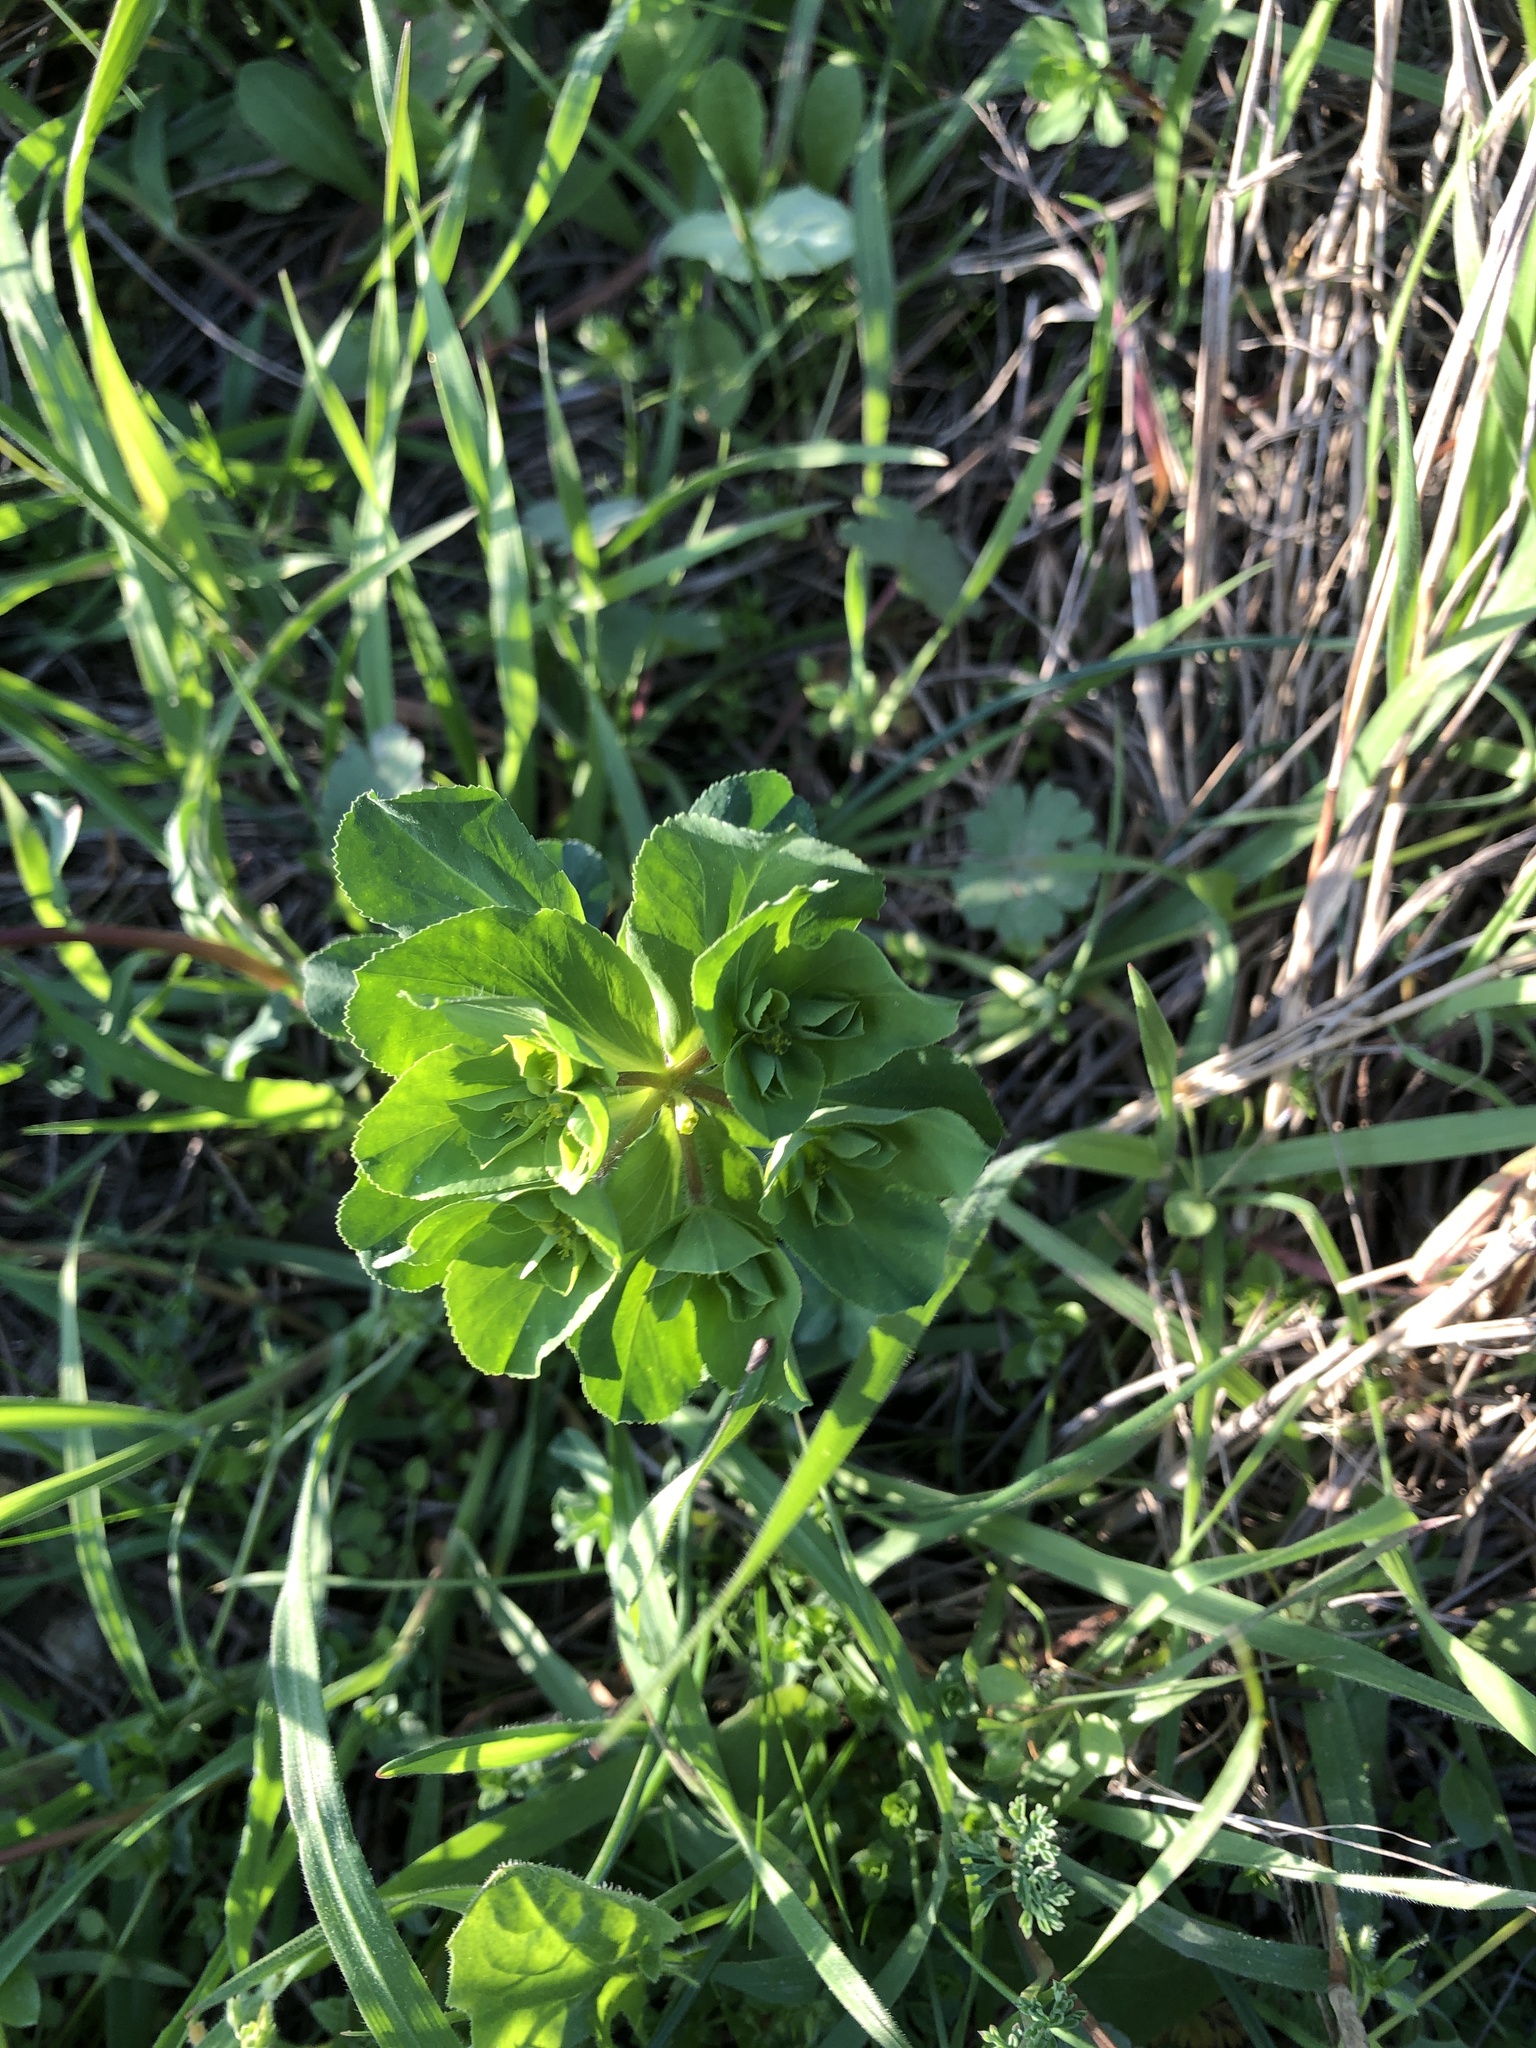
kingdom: Plantae
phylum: Tracheophyta
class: Magnoliopsida
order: Malpighiales
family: Euphorbiaceae
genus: Euphorbia
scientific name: Euphorbia helioscopia
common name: Sun spurge
